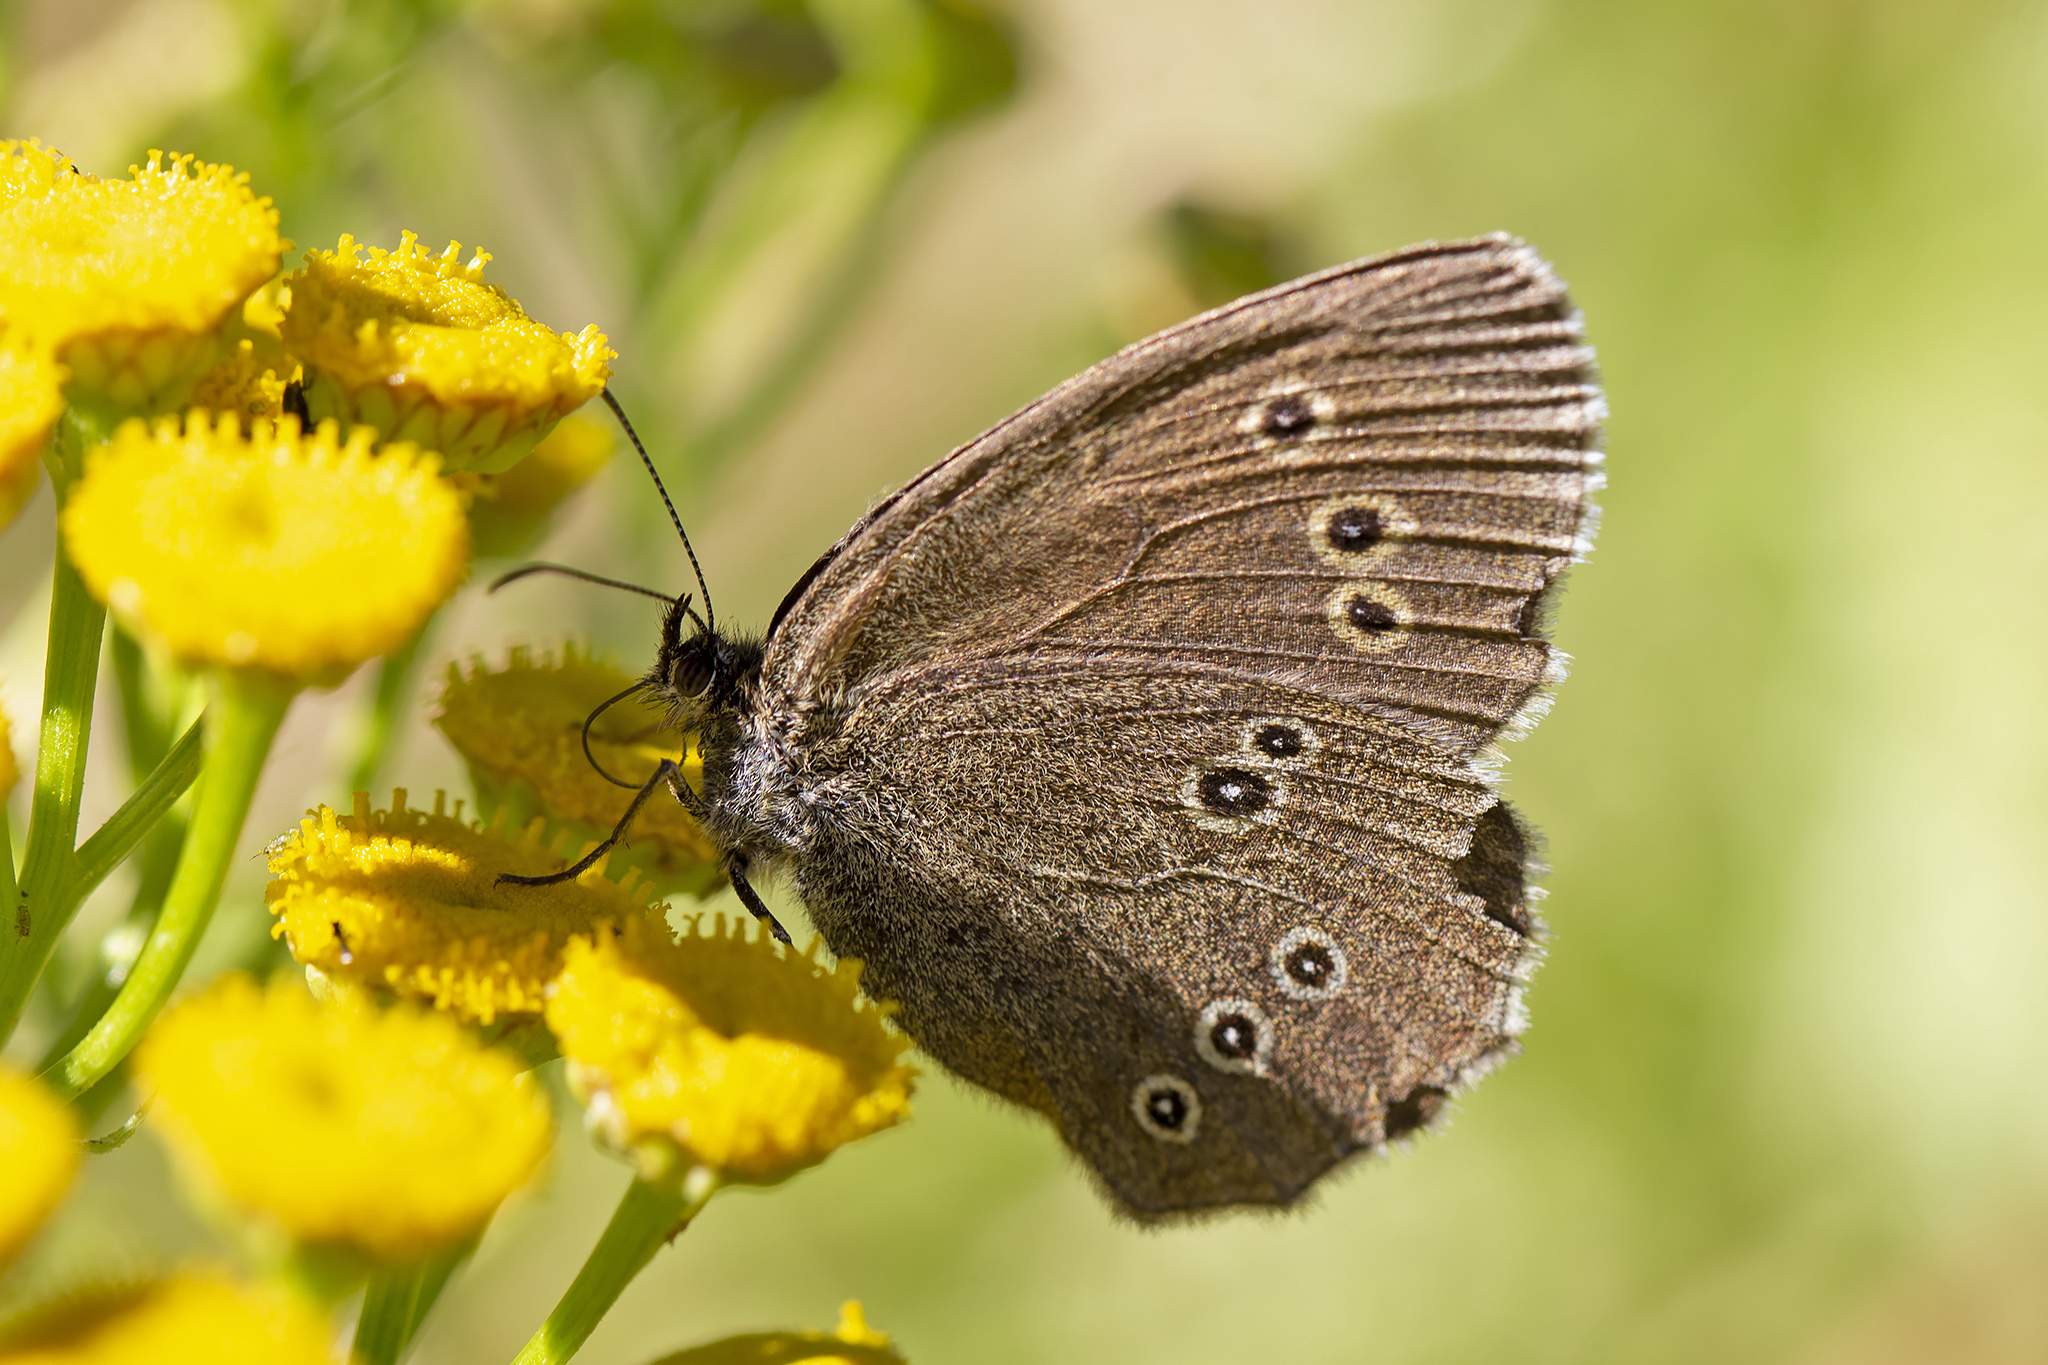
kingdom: Animalia
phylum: Arthropoda
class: Insecta
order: Lepidoptera
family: Nymphalidae
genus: Aphantopus
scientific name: Aphantopus hyperantus
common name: Ringlet
